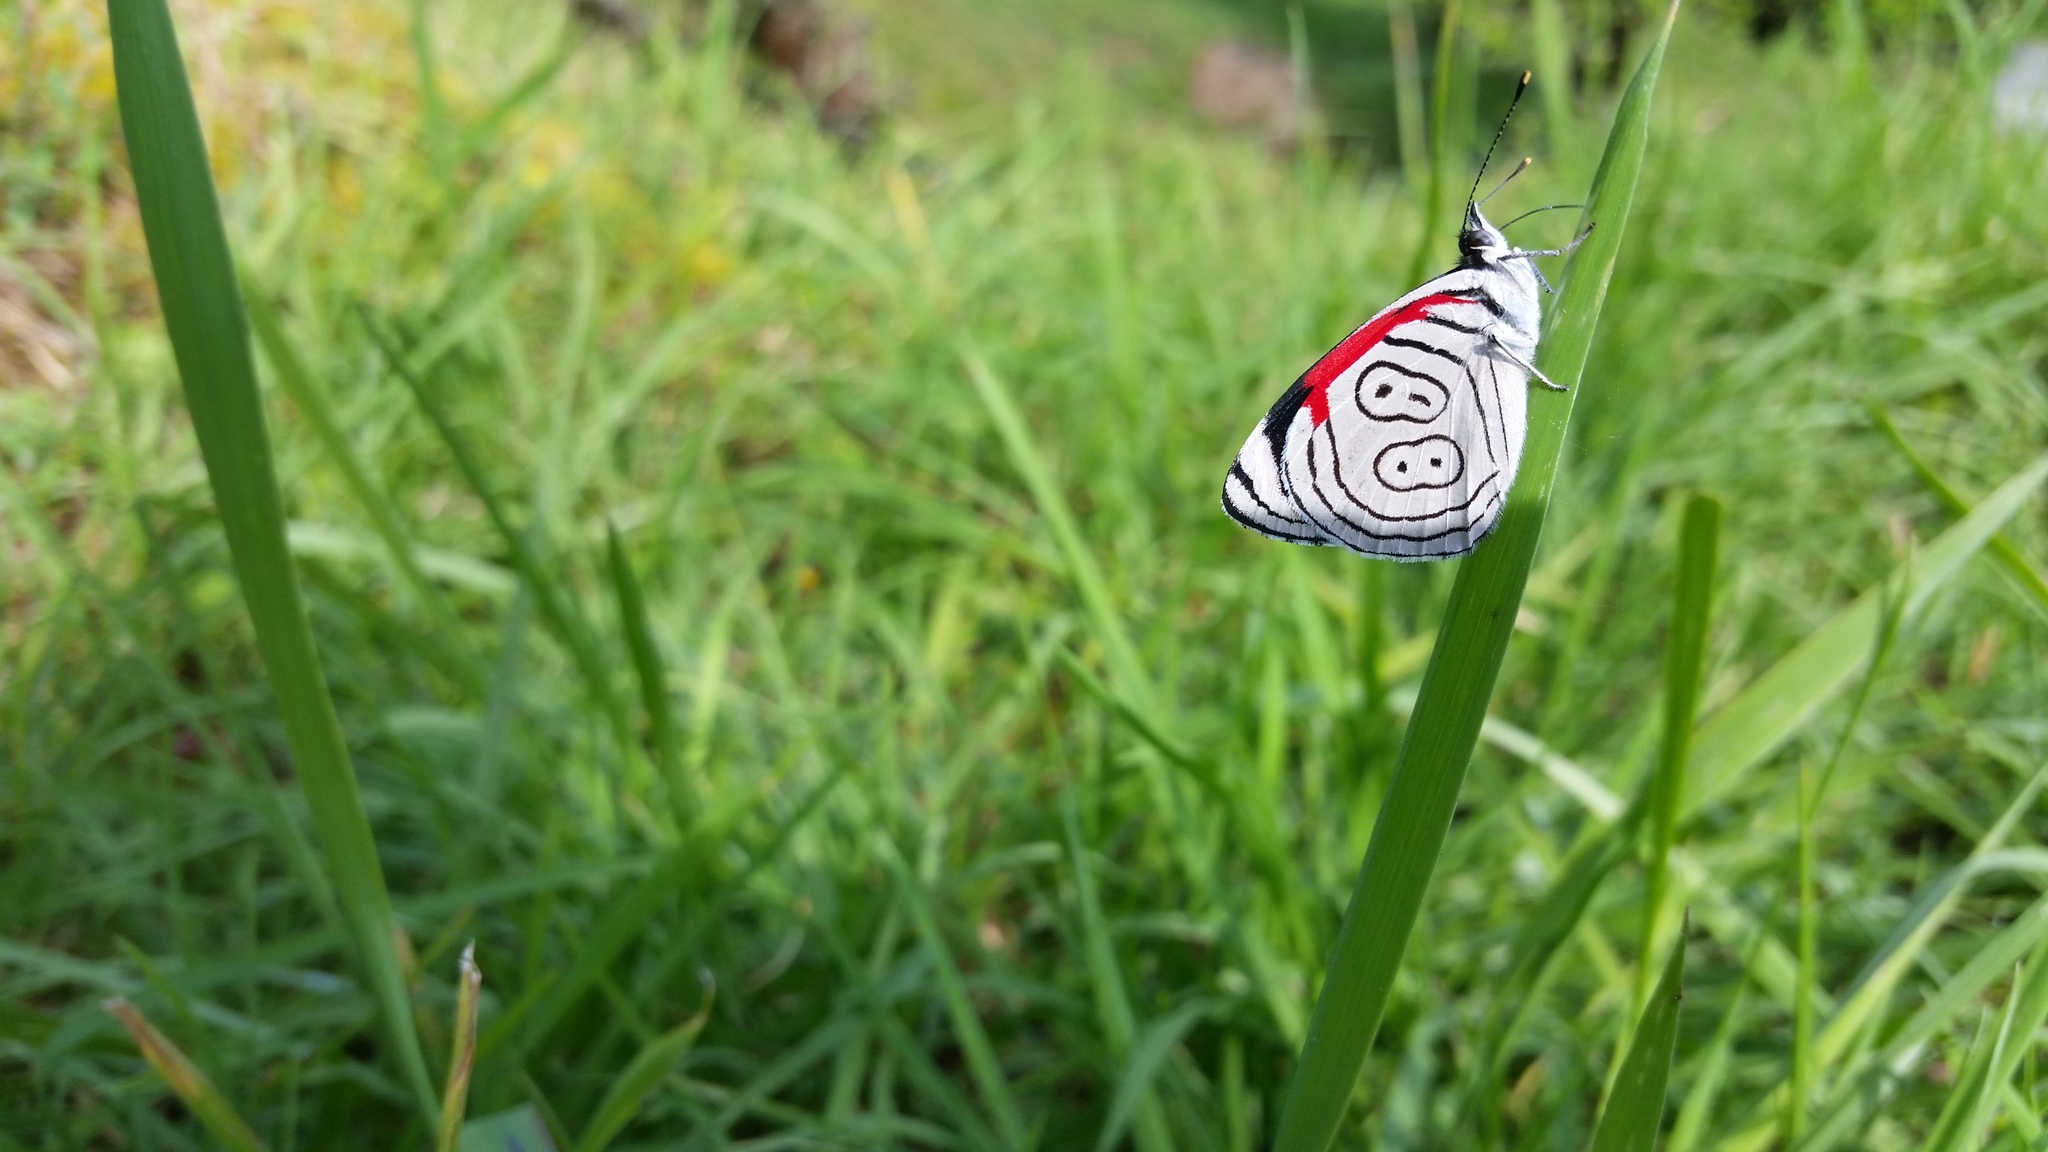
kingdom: Animalia
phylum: Arthropoda
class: Insecta
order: Lepidoptera
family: Nymphalidae
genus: Diaethria
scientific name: Diaethria anna
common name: Anna’s eighty-eight
